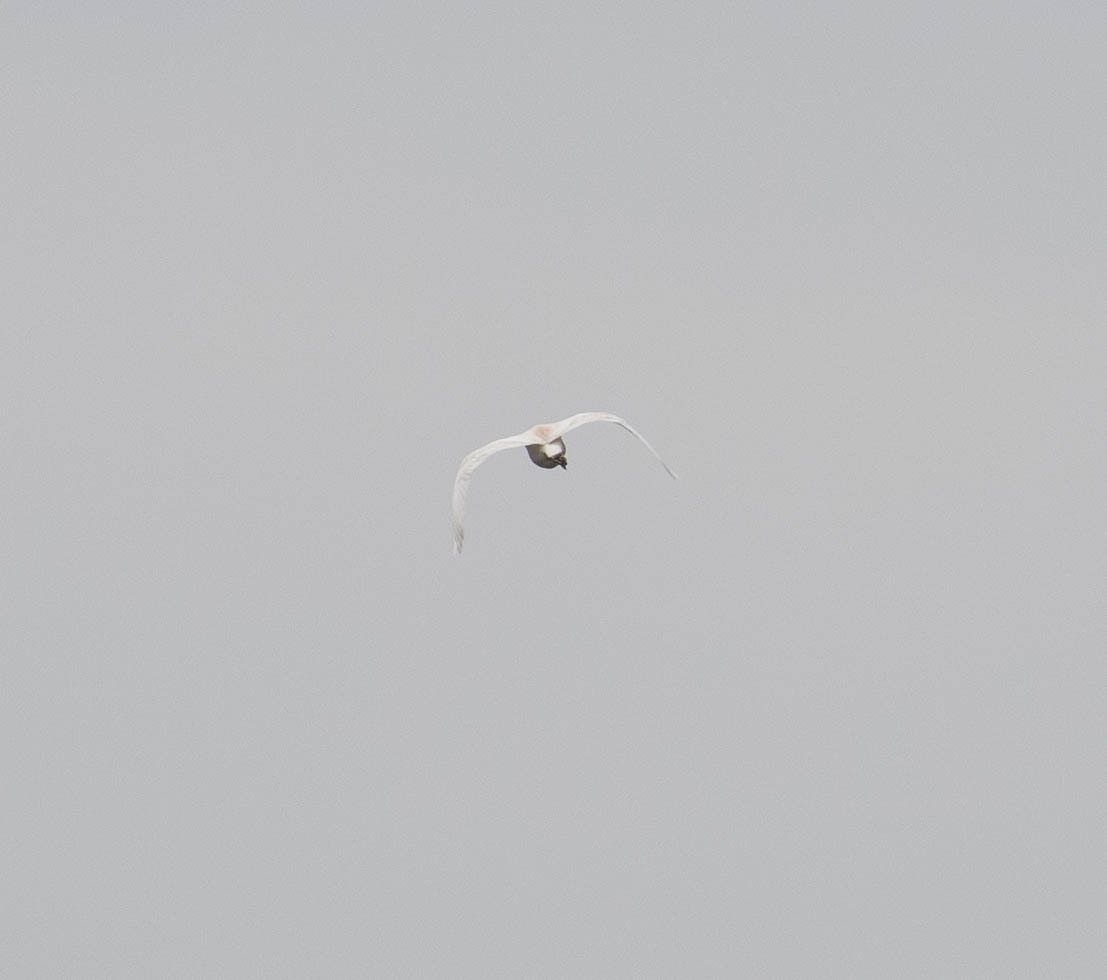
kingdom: Animalia
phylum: Chordata
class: Aves
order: Pelecaniformes
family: Ardeidae
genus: Bubulcus
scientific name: Bubulcus ibis
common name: Cattle egret
